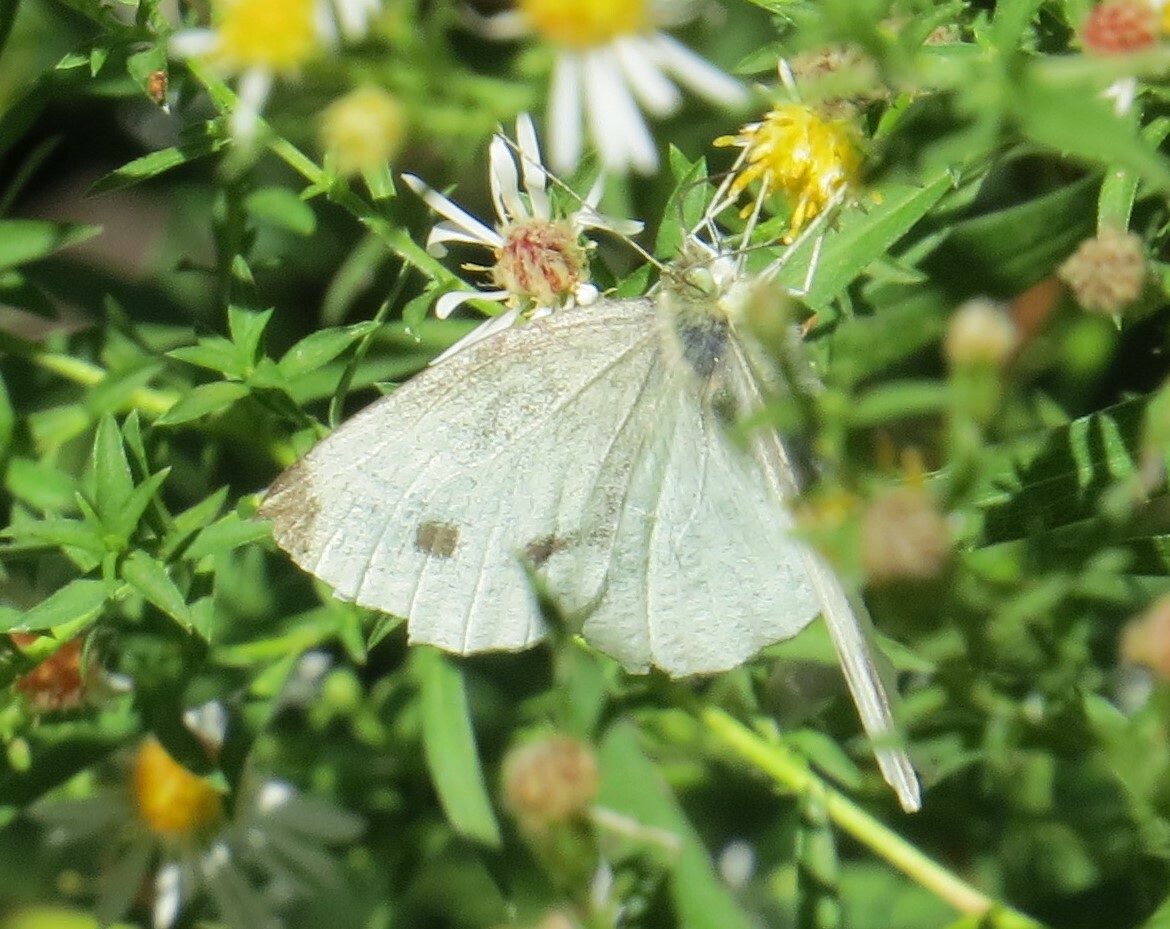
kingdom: Animalia
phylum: Arthropoda
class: Insecta
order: Lepidoptera
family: Pieridae
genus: Pieris
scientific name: Pieris rapae
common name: Small white
